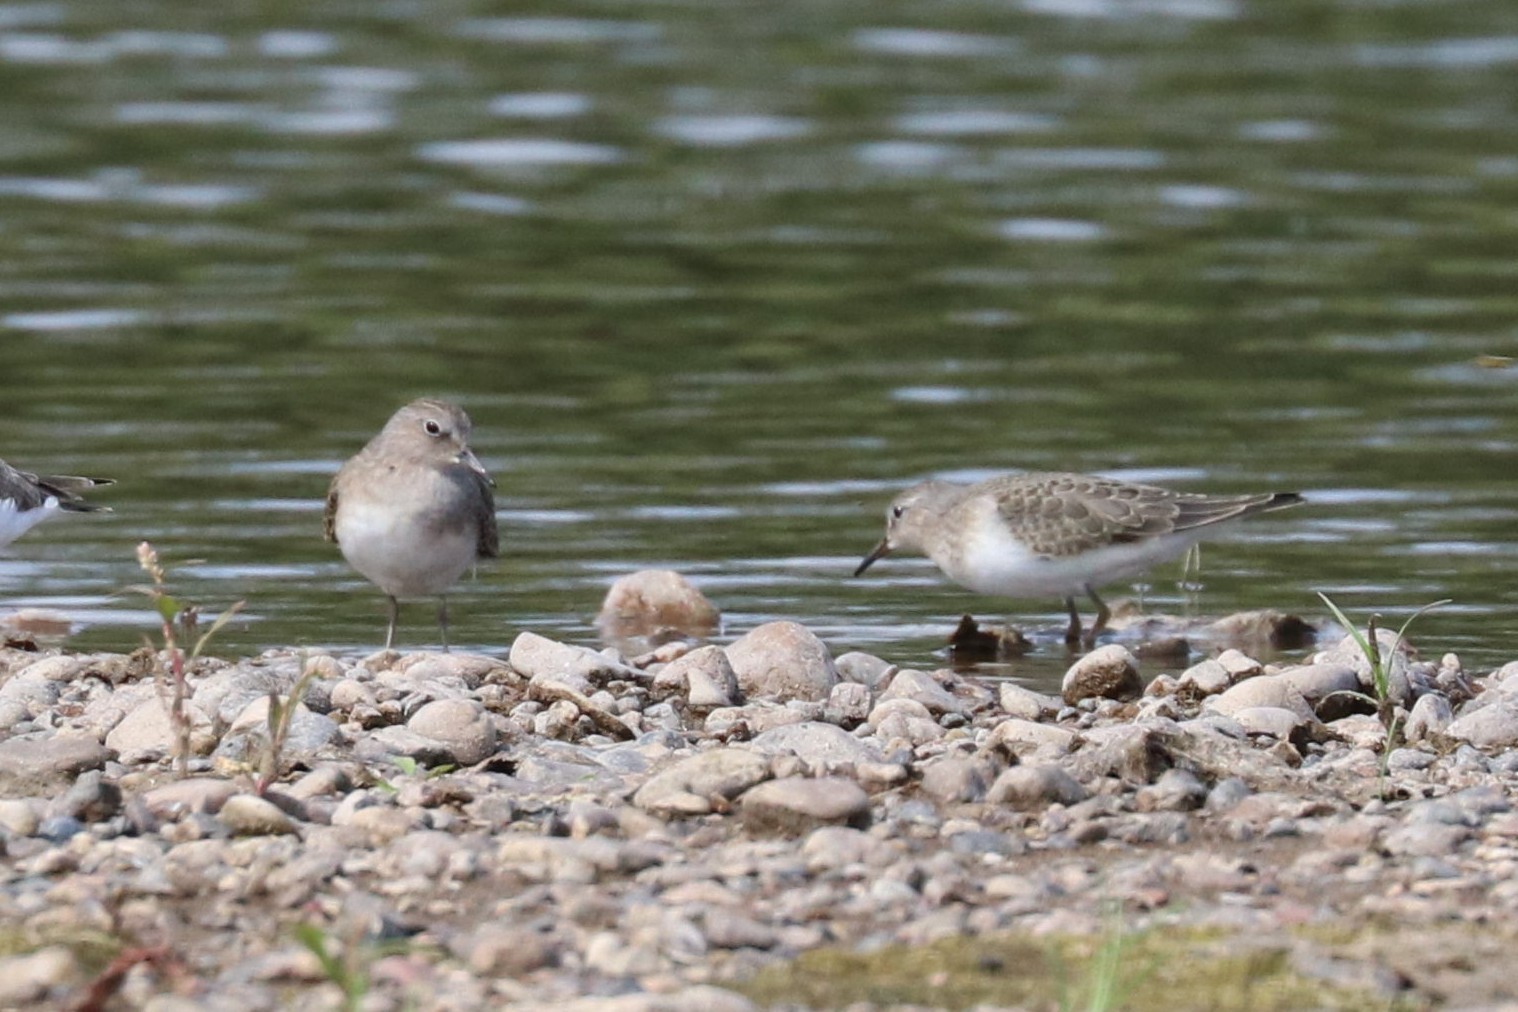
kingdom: Animalia
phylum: Chordata
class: Aves
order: Charadriiformes
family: Scolopacidae
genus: Calidris
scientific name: Calidris temminckii
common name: Temminck's stint
